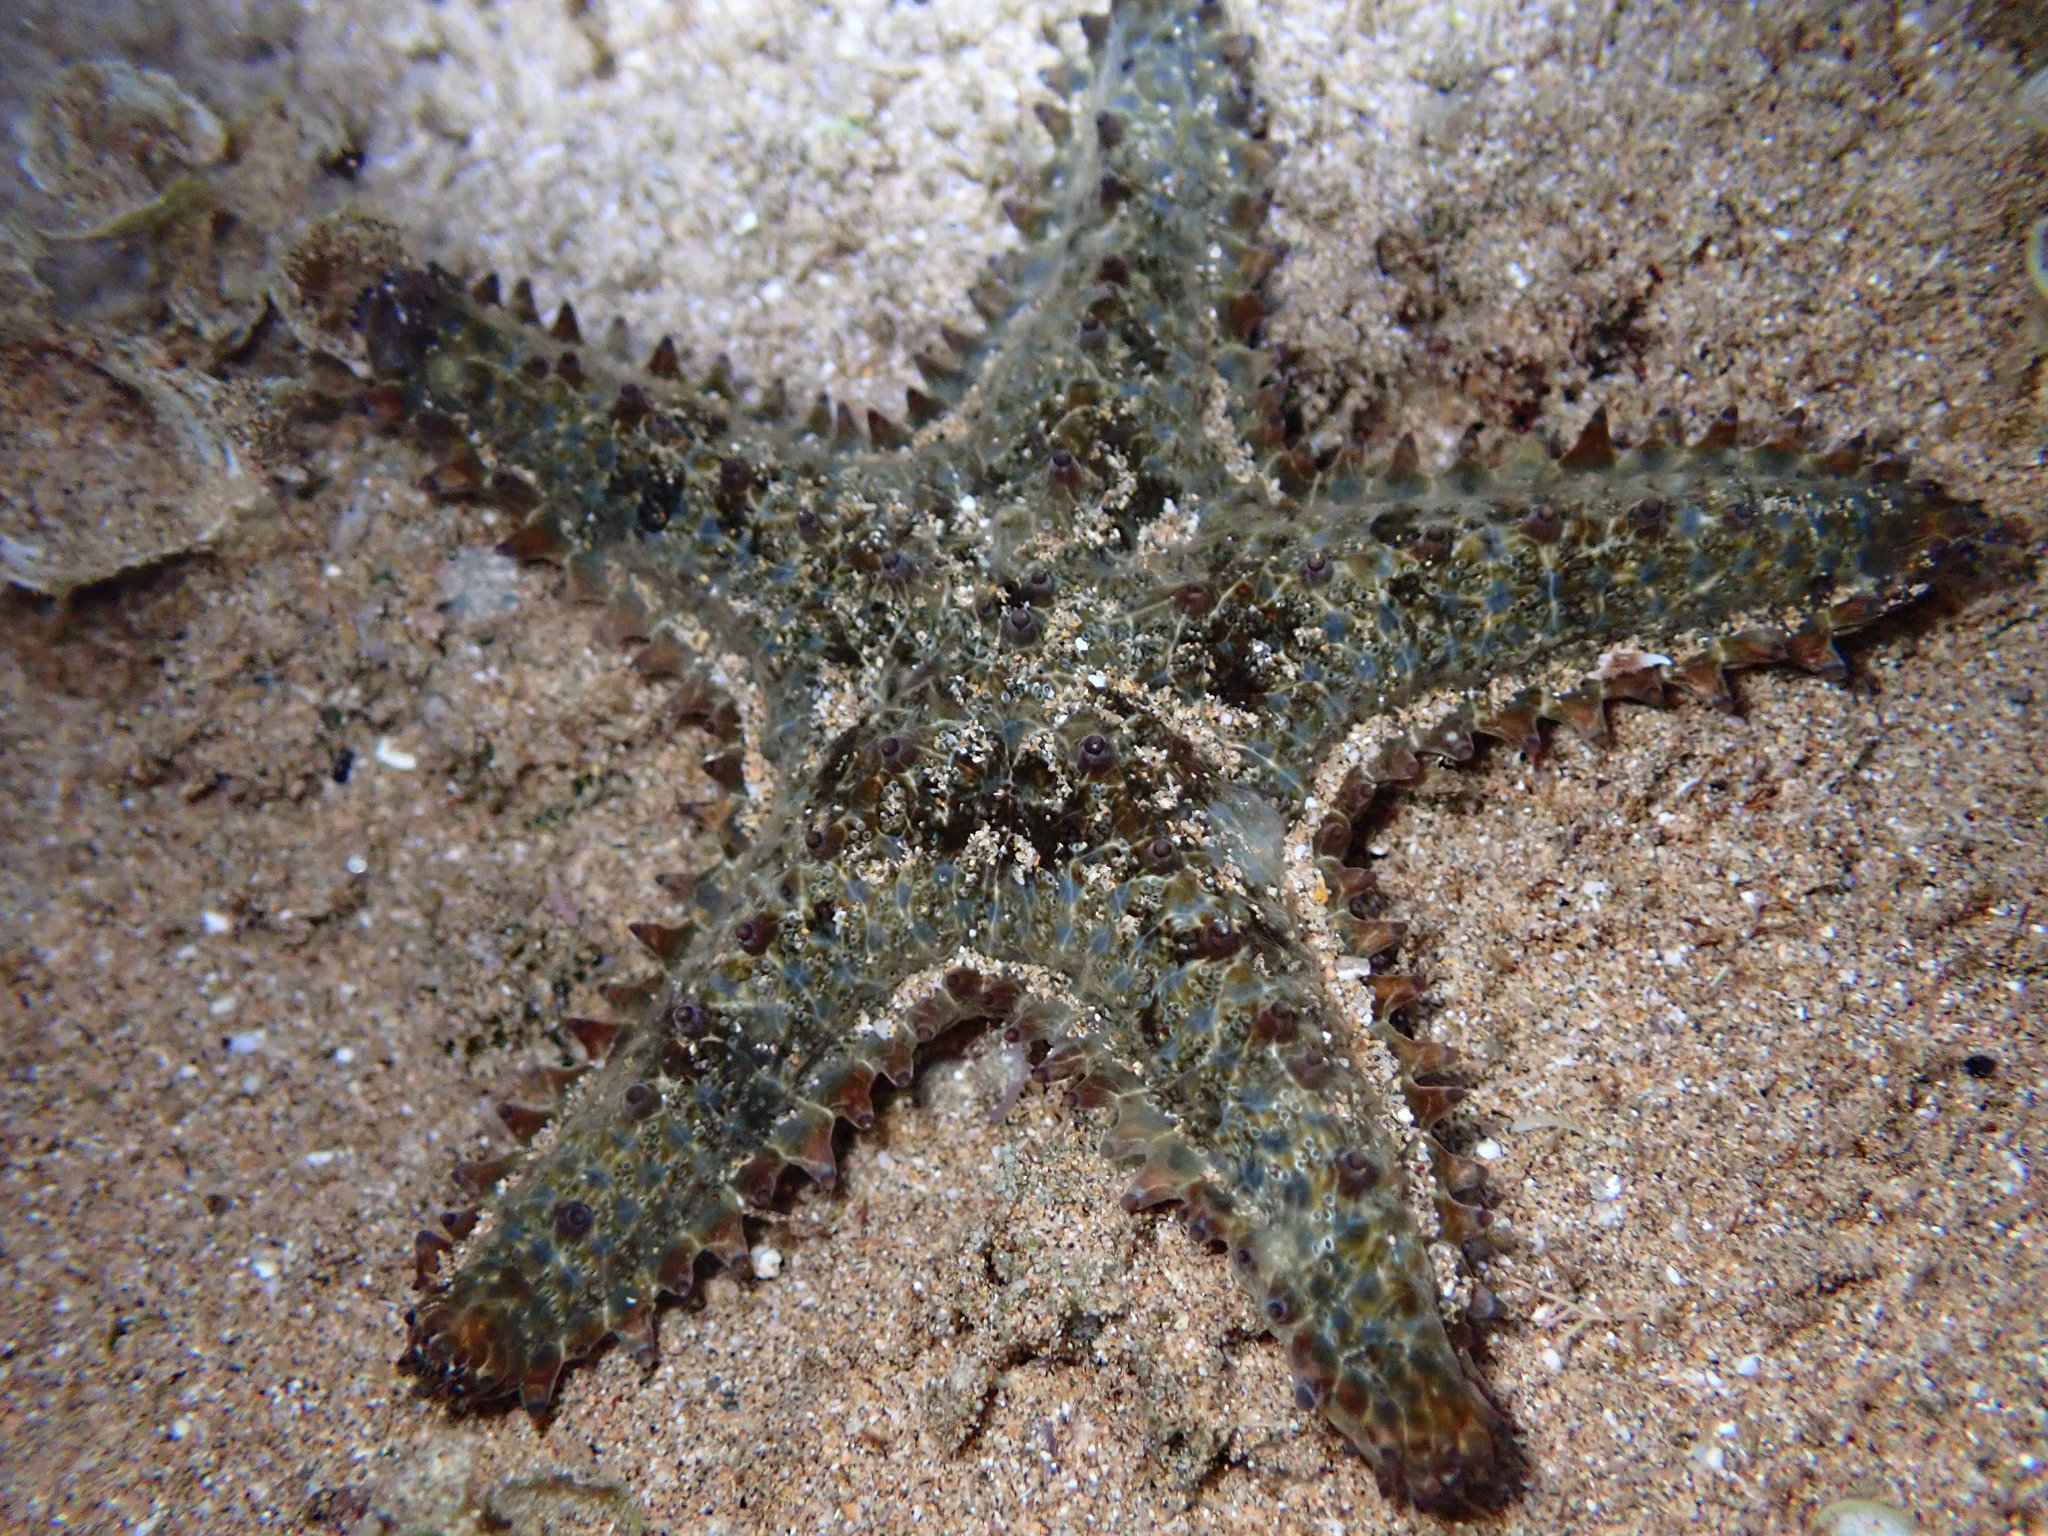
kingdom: Animalia
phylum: Echinodermata
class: Asteroidea
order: Valvatida
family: Asteropseidae
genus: Asteropsis
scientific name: Asteropsis carinifera
